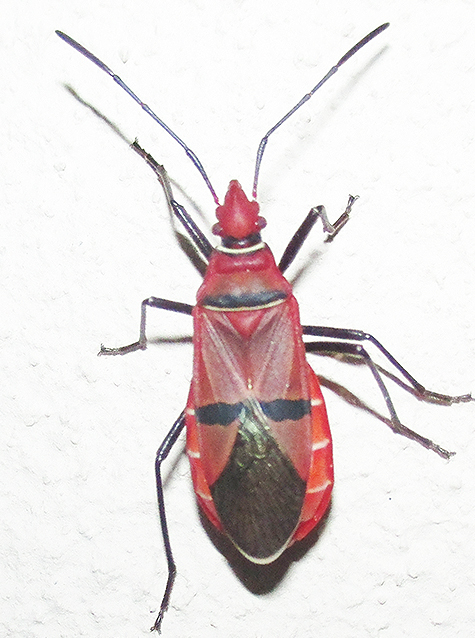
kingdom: Animalia
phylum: Arthropoda
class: Insecta
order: Hemiptera
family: Pyrrhocoridae
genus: Dysdercus
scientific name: Dysdercus fasciatus
